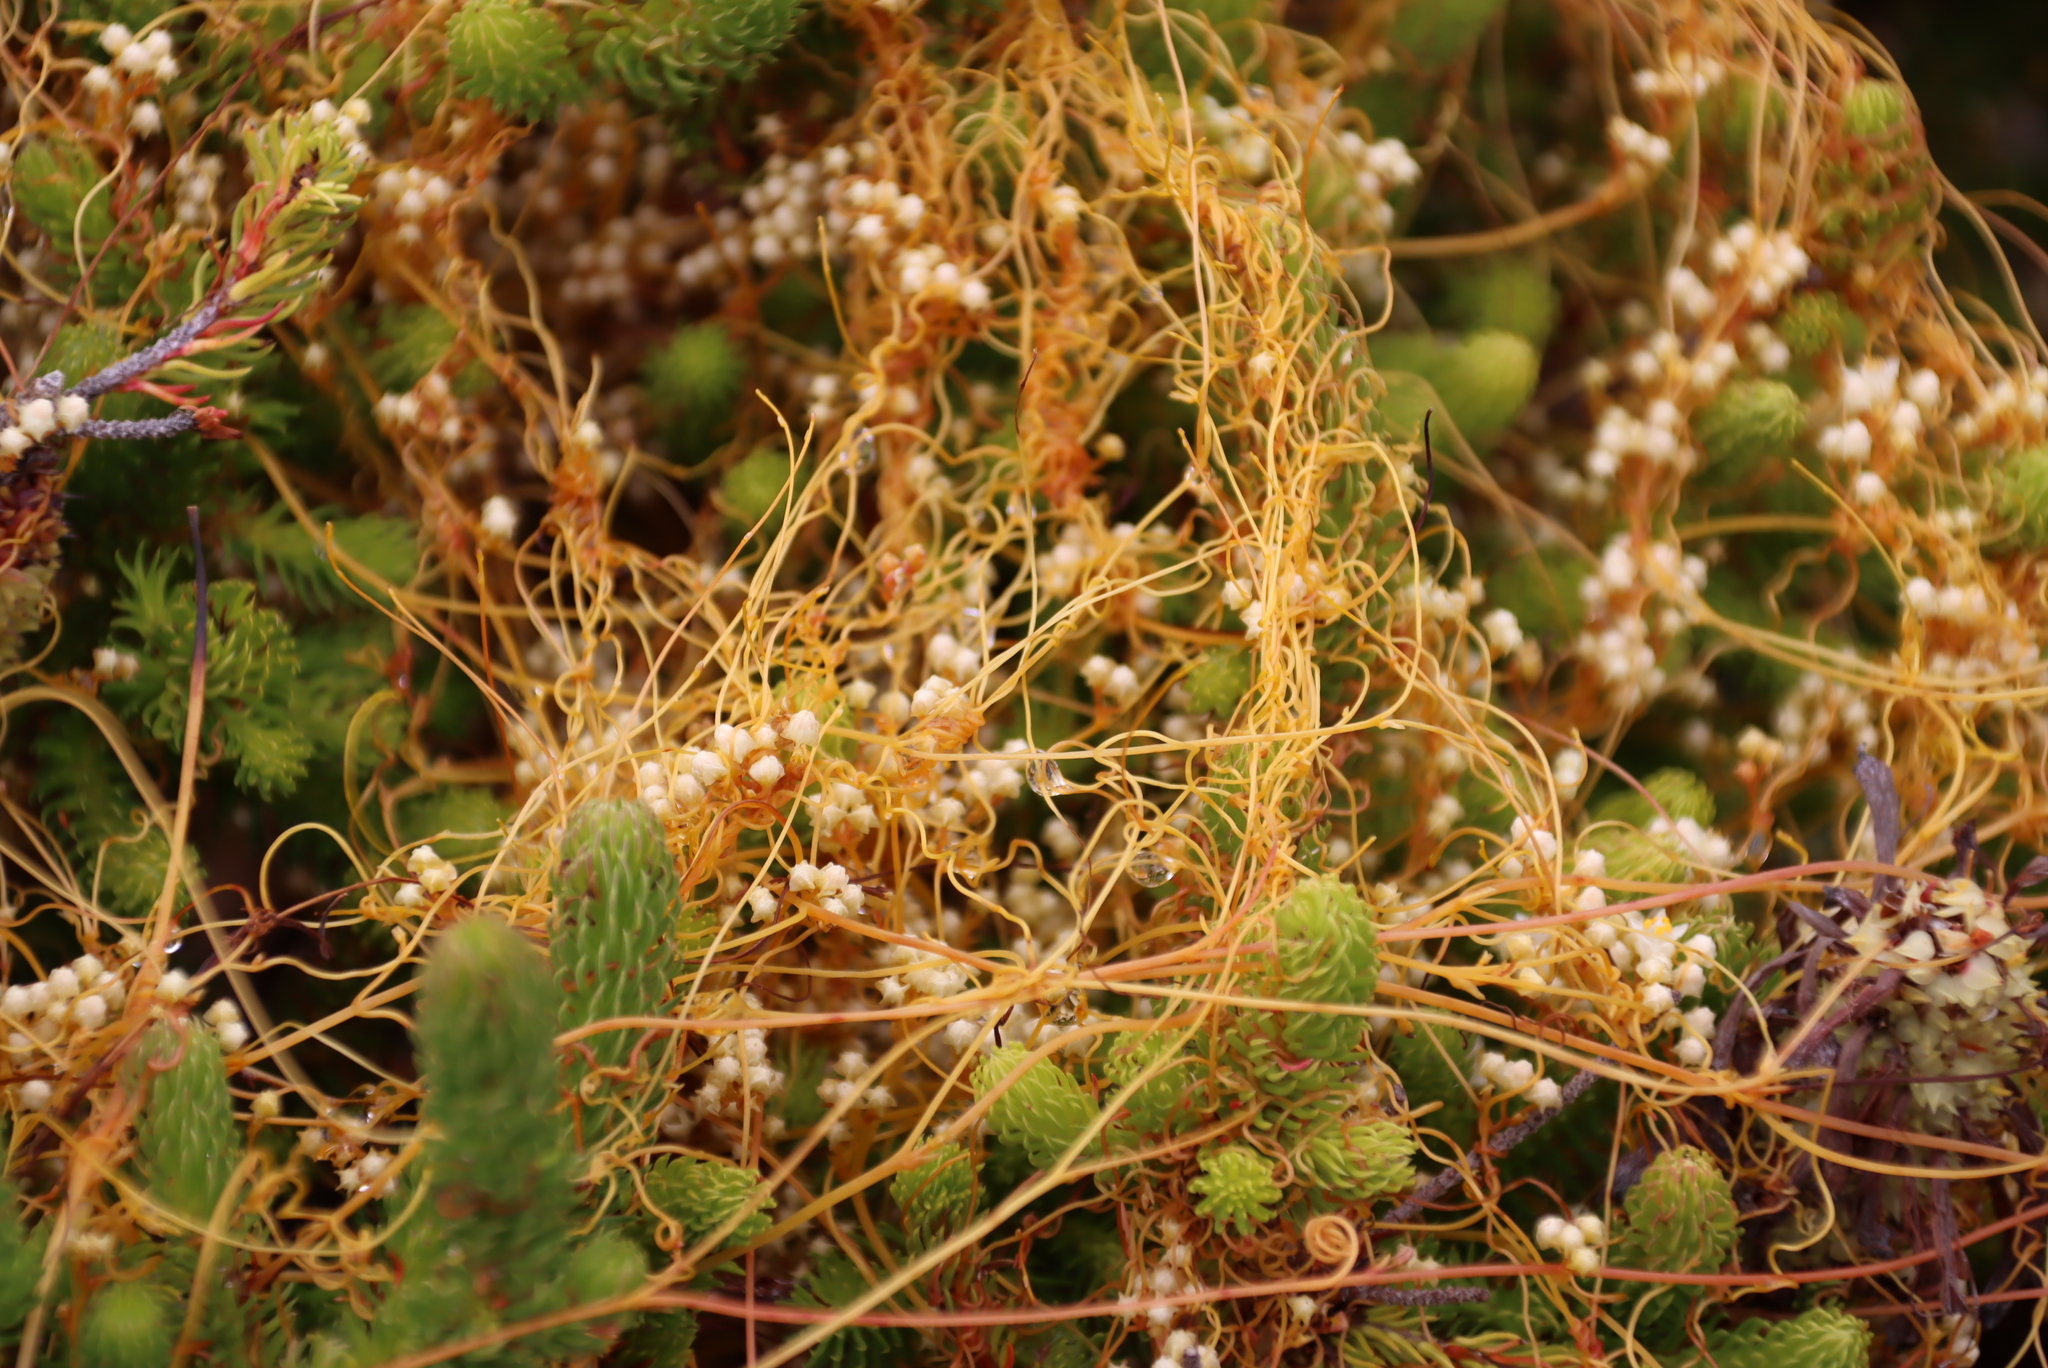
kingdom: Plantae
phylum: Tracheophyta
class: Magnoliopsida
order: Solanales
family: Convolvulaceae
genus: Cuscuta
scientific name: Cuscuta angulata
